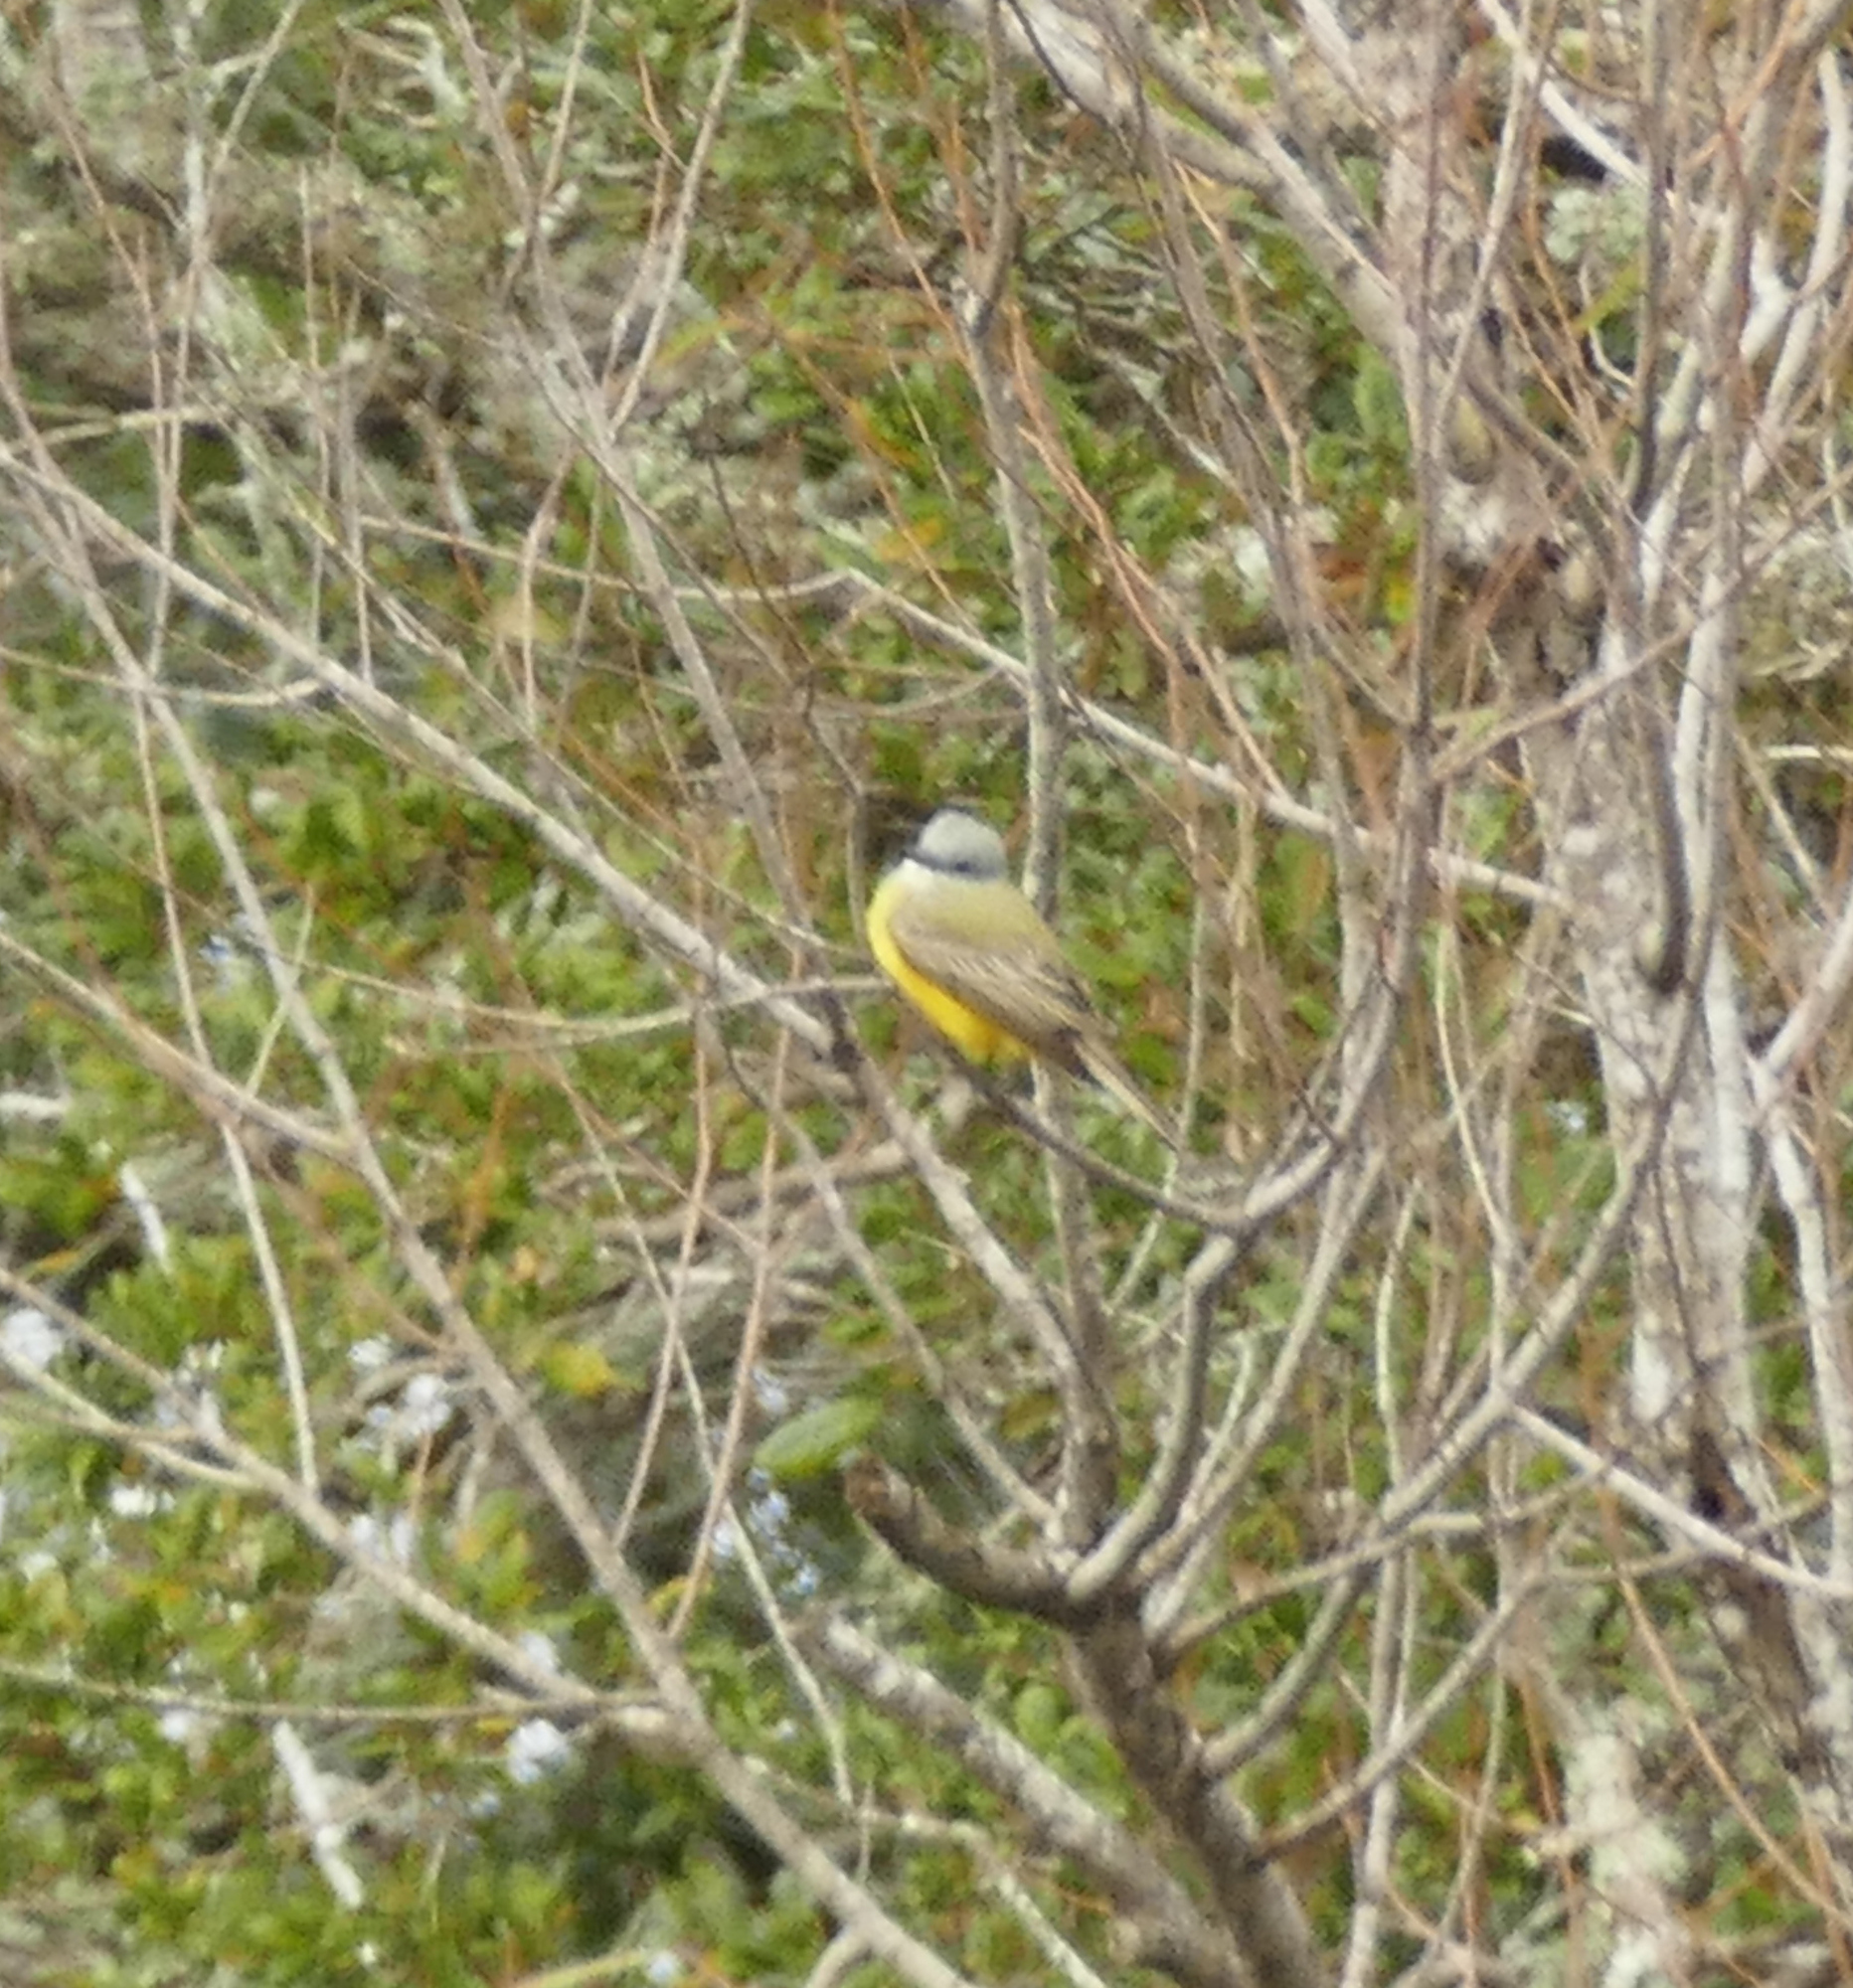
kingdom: Animalia
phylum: Chordata
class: Aves
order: Passeriformes
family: Tyrannidae
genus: Tyrannus
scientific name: Tyrannus couchii
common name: Couch's kingbird
